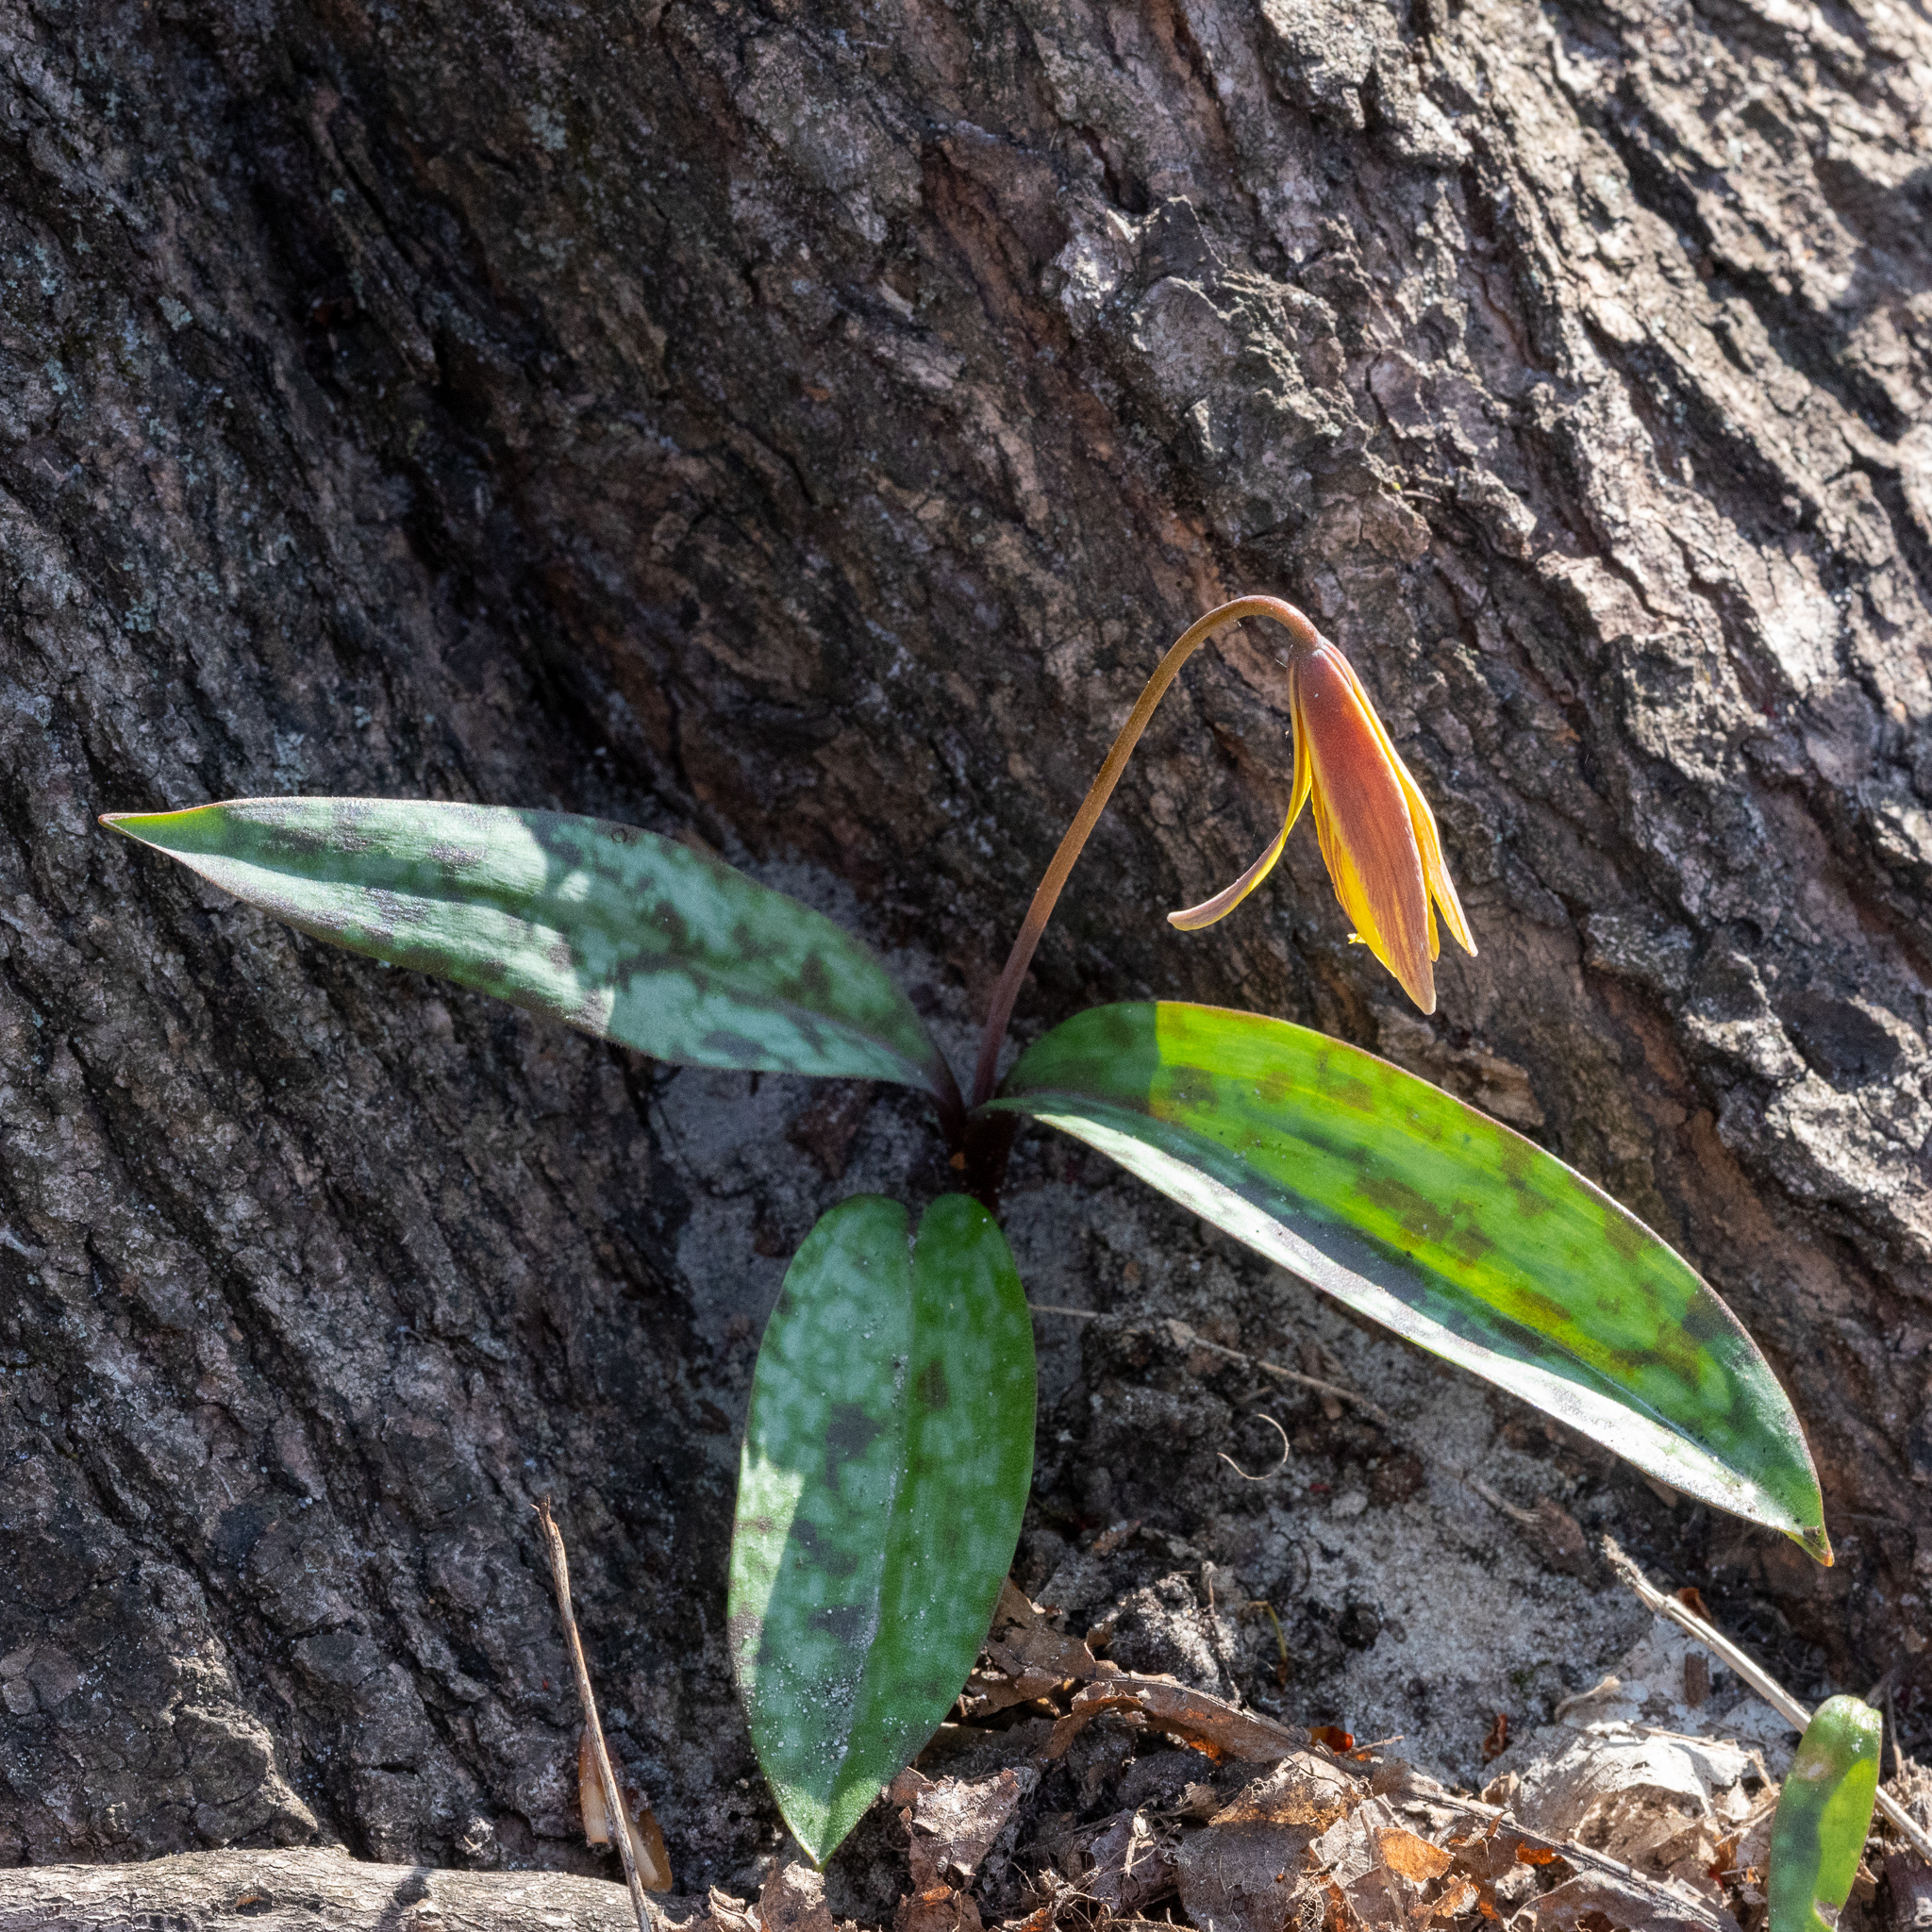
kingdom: Plantae
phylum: Tracheophyta
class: Liliopsida
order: Liliales
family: Liliaceae
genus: Erythronium
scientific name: Erythronium americanum
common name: Yellow adder's-tongue
